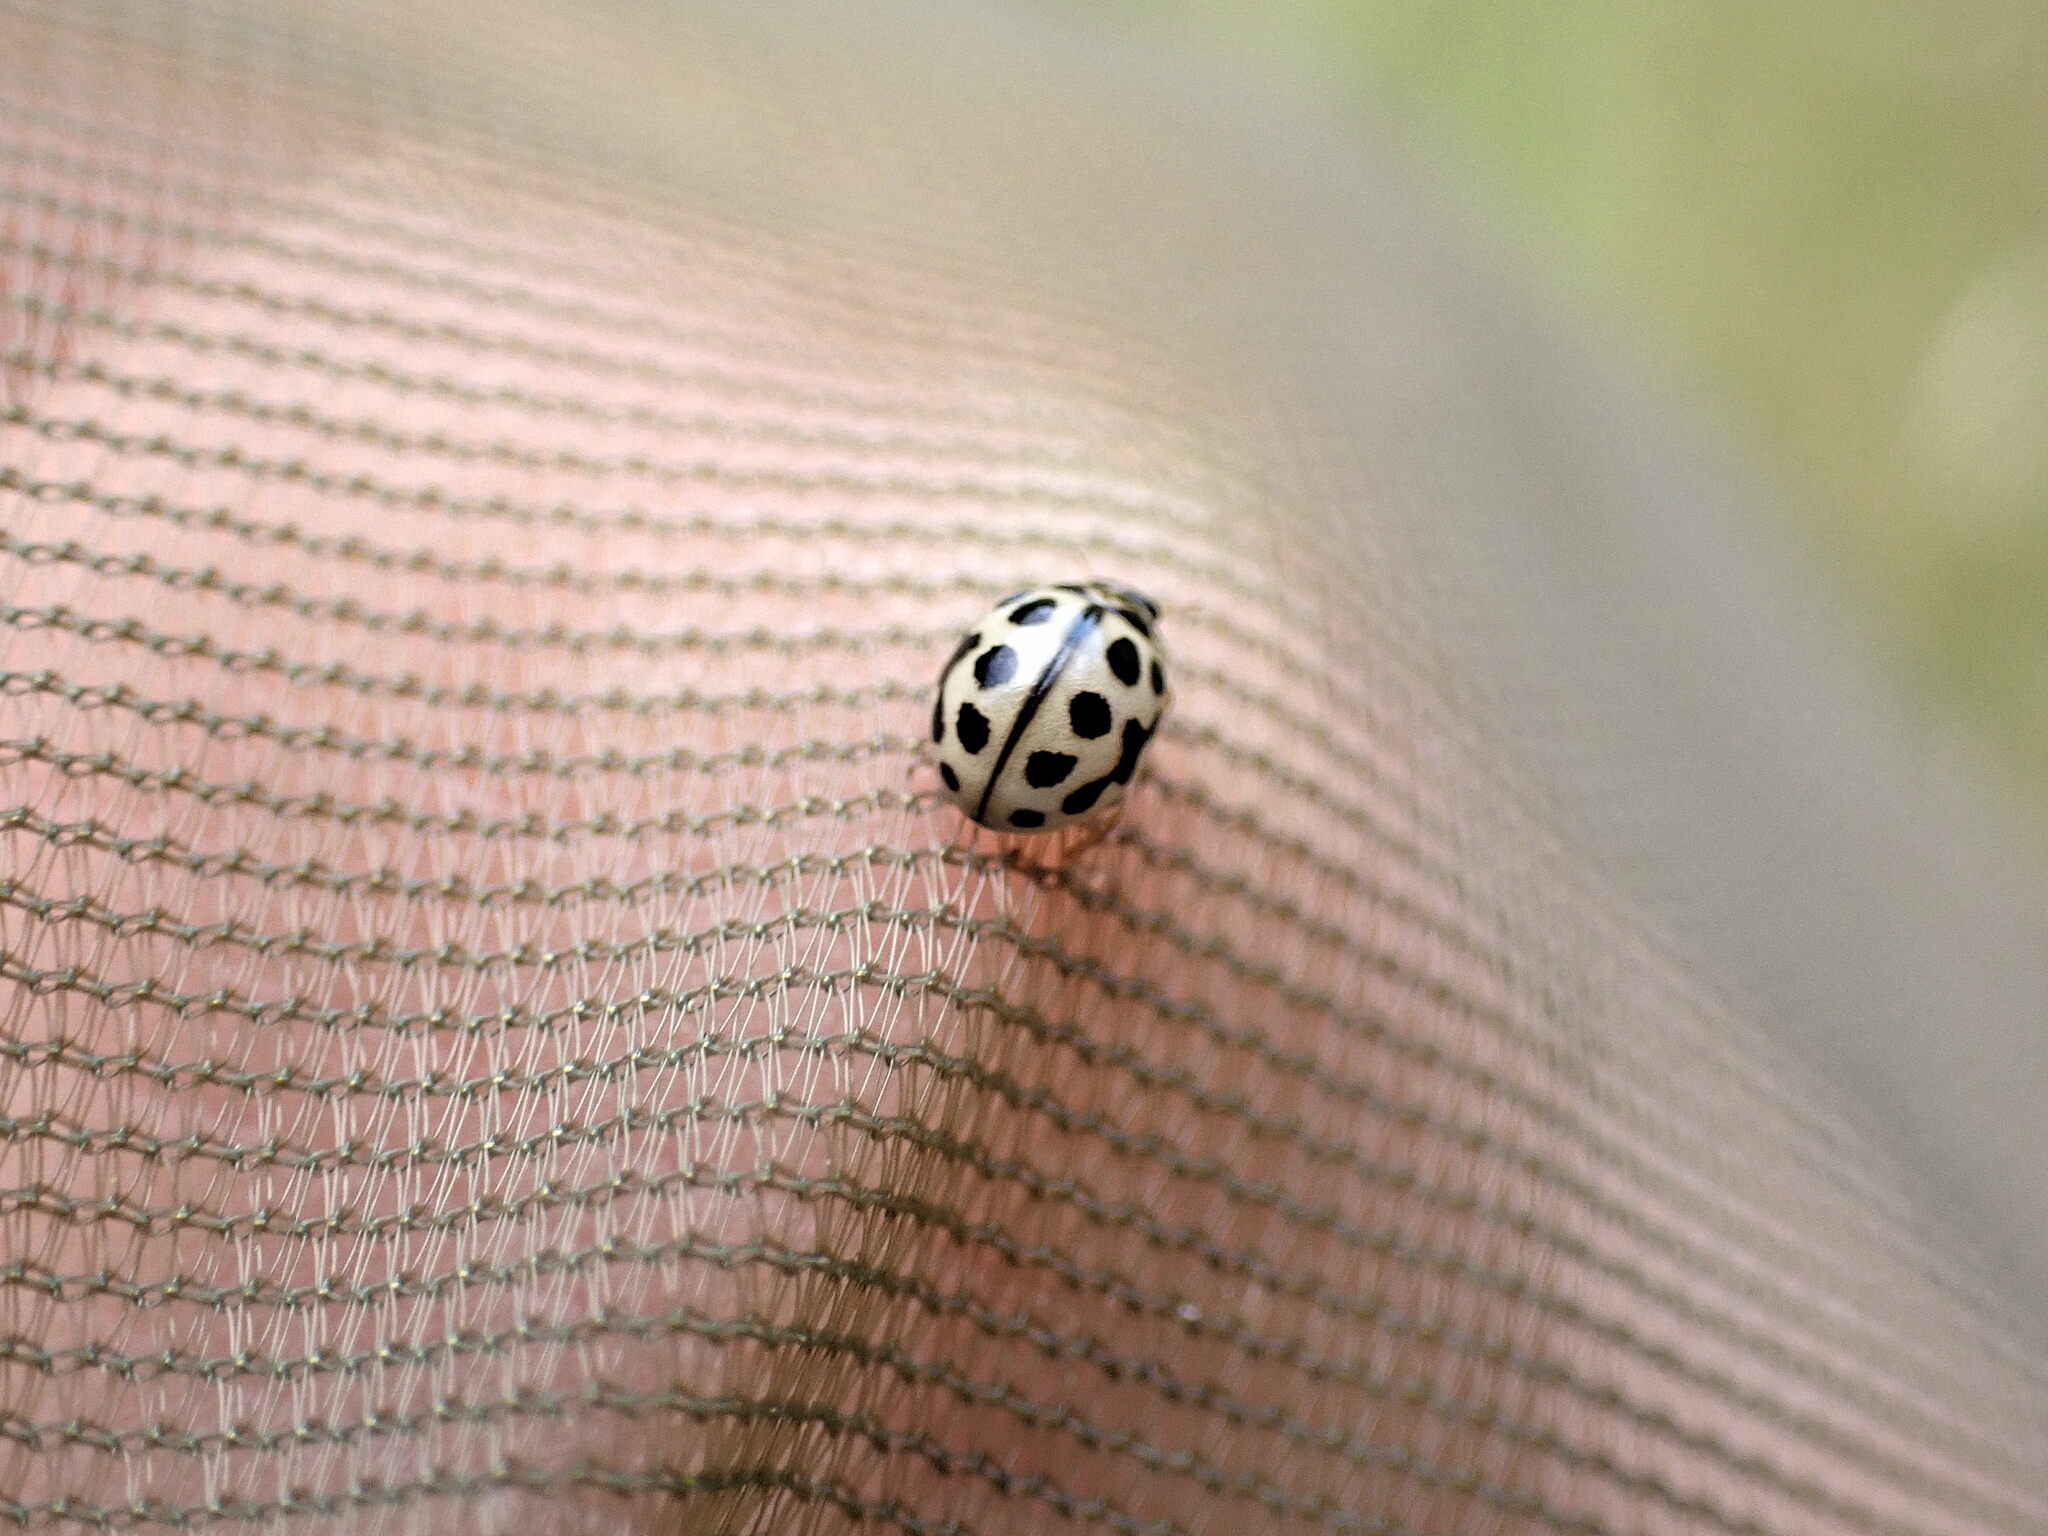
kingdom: Animalia
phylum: Arthropoda
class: Insecta
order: Coleoptera
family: Coccinellidae
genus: Tytthaspis
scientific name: Tytthaspis sedecimpunctata
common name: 16-spot ladybird
